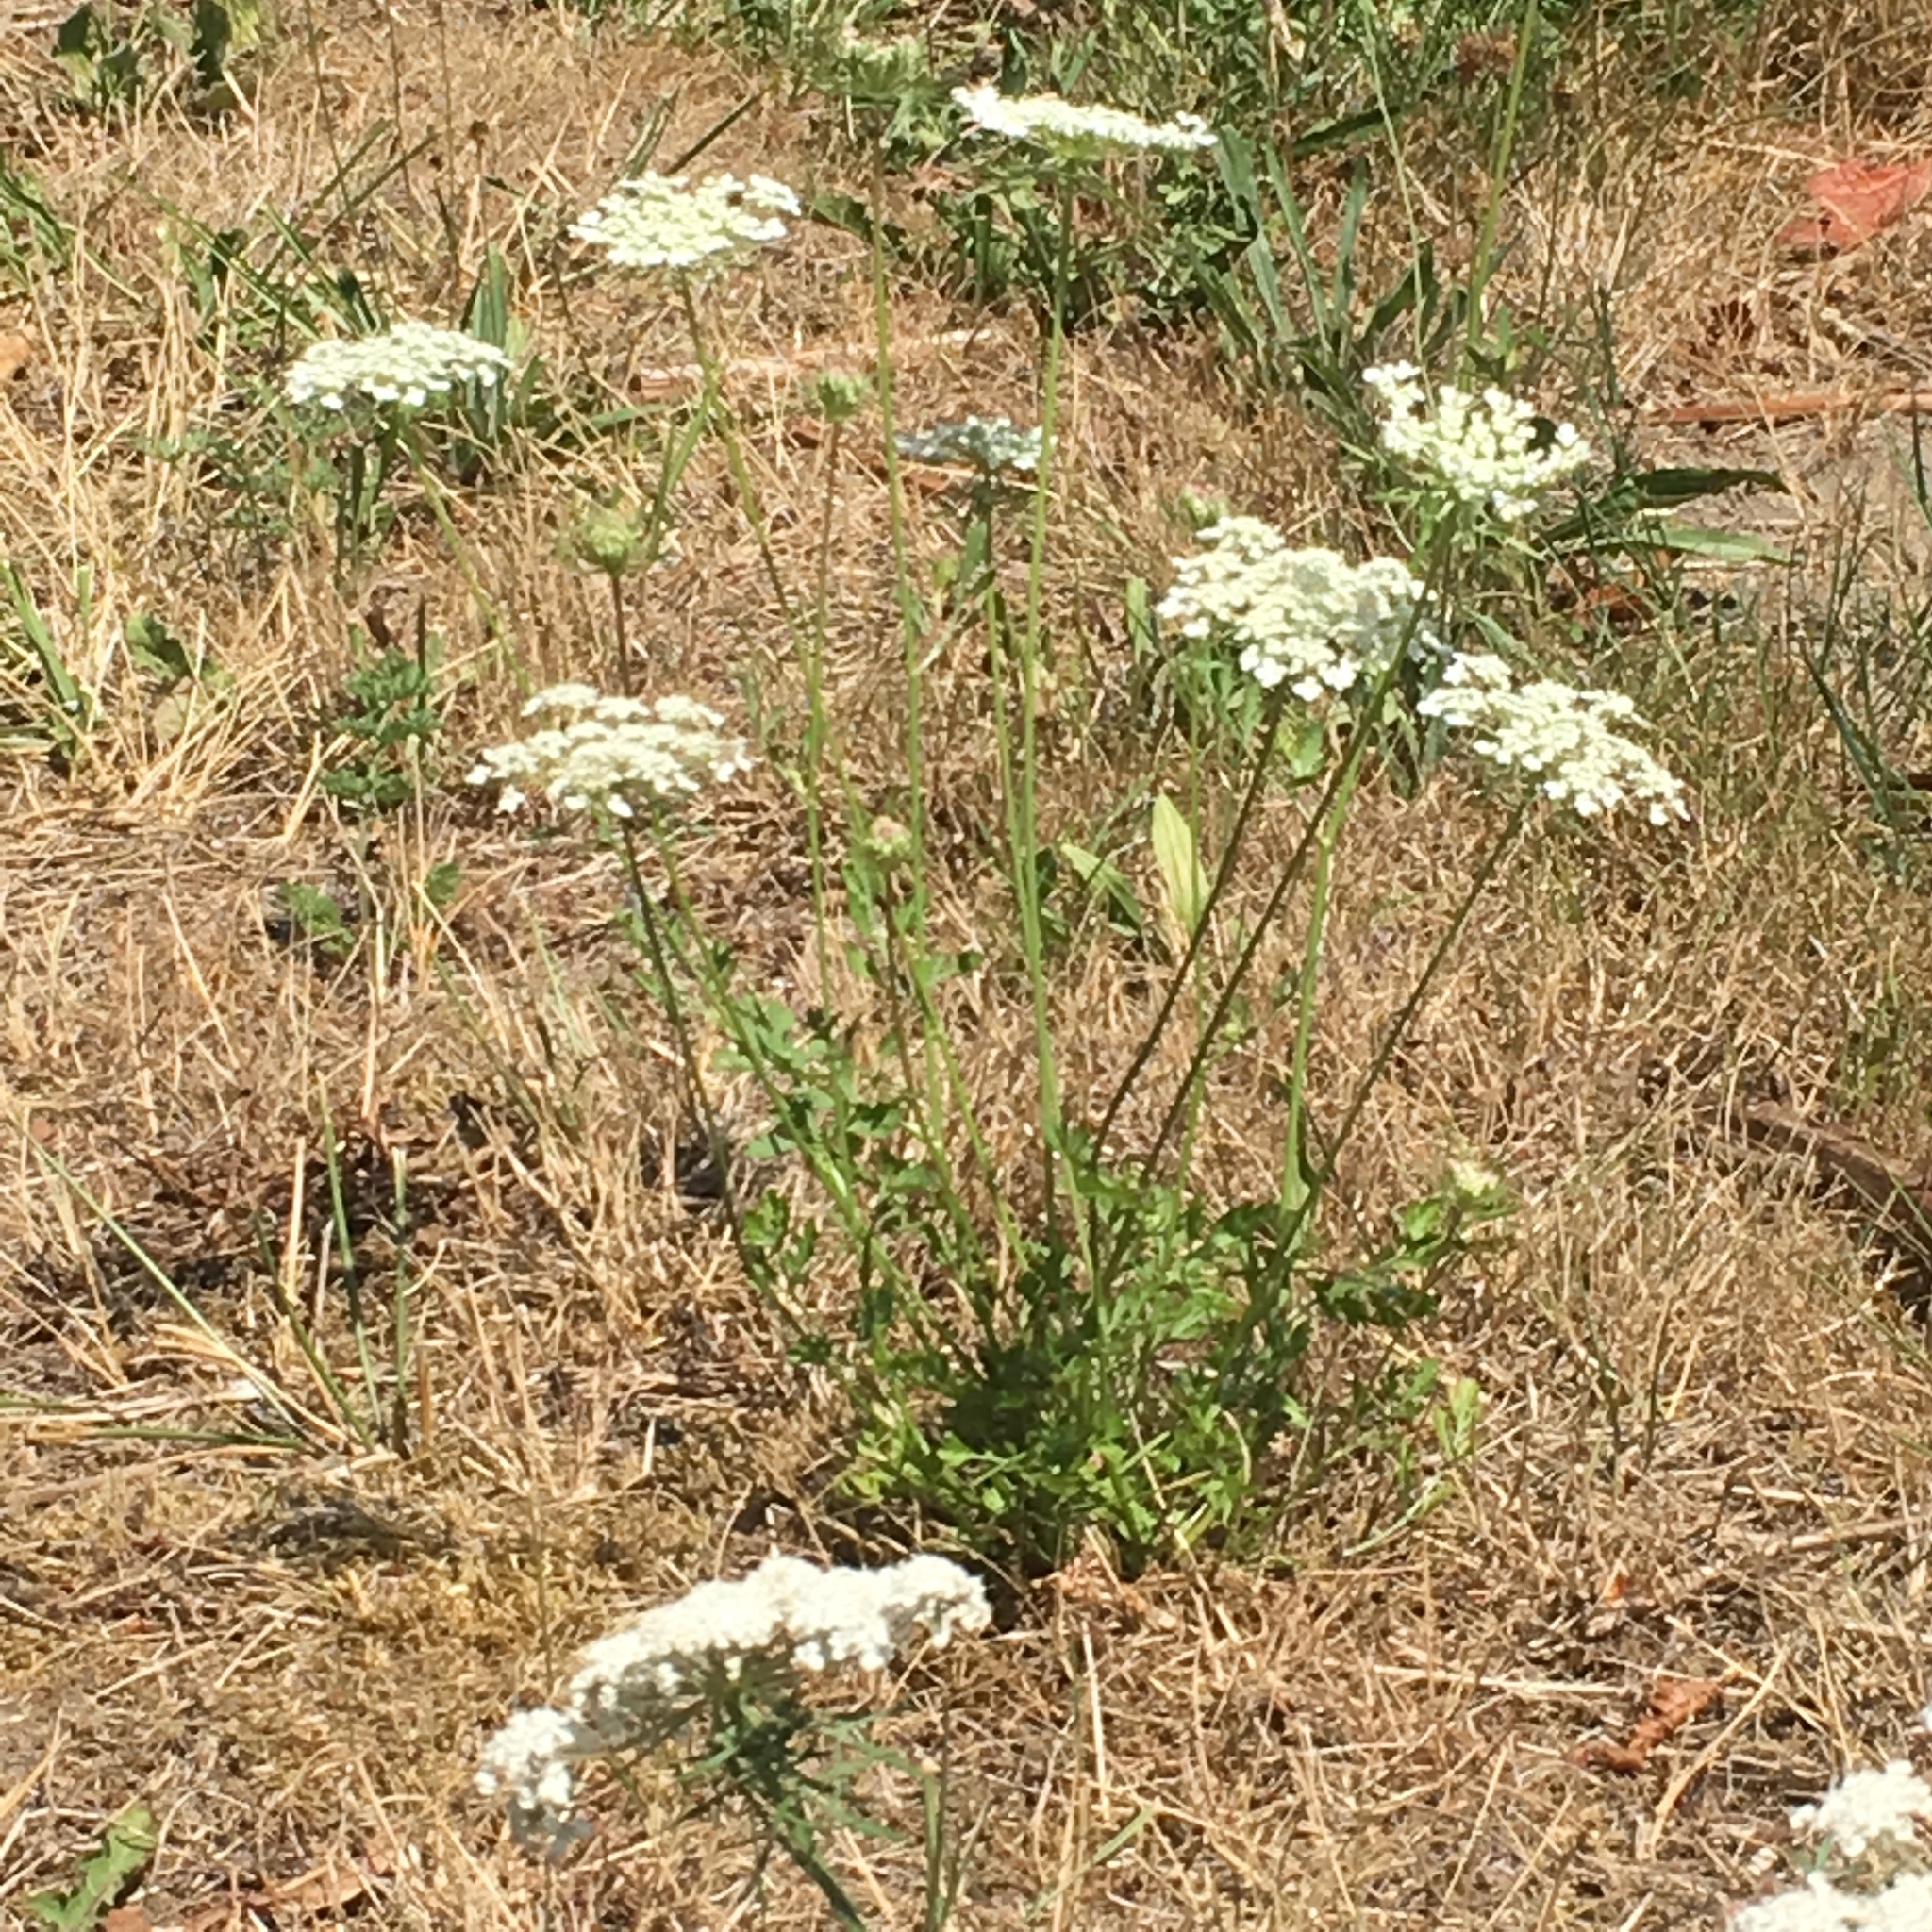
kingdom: Plantae
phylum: Tracheophyta
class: Magnoliopsida
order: Apiales
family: Apiaceae
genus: Daucus
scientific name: Daucus carota
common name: Wild carrot
